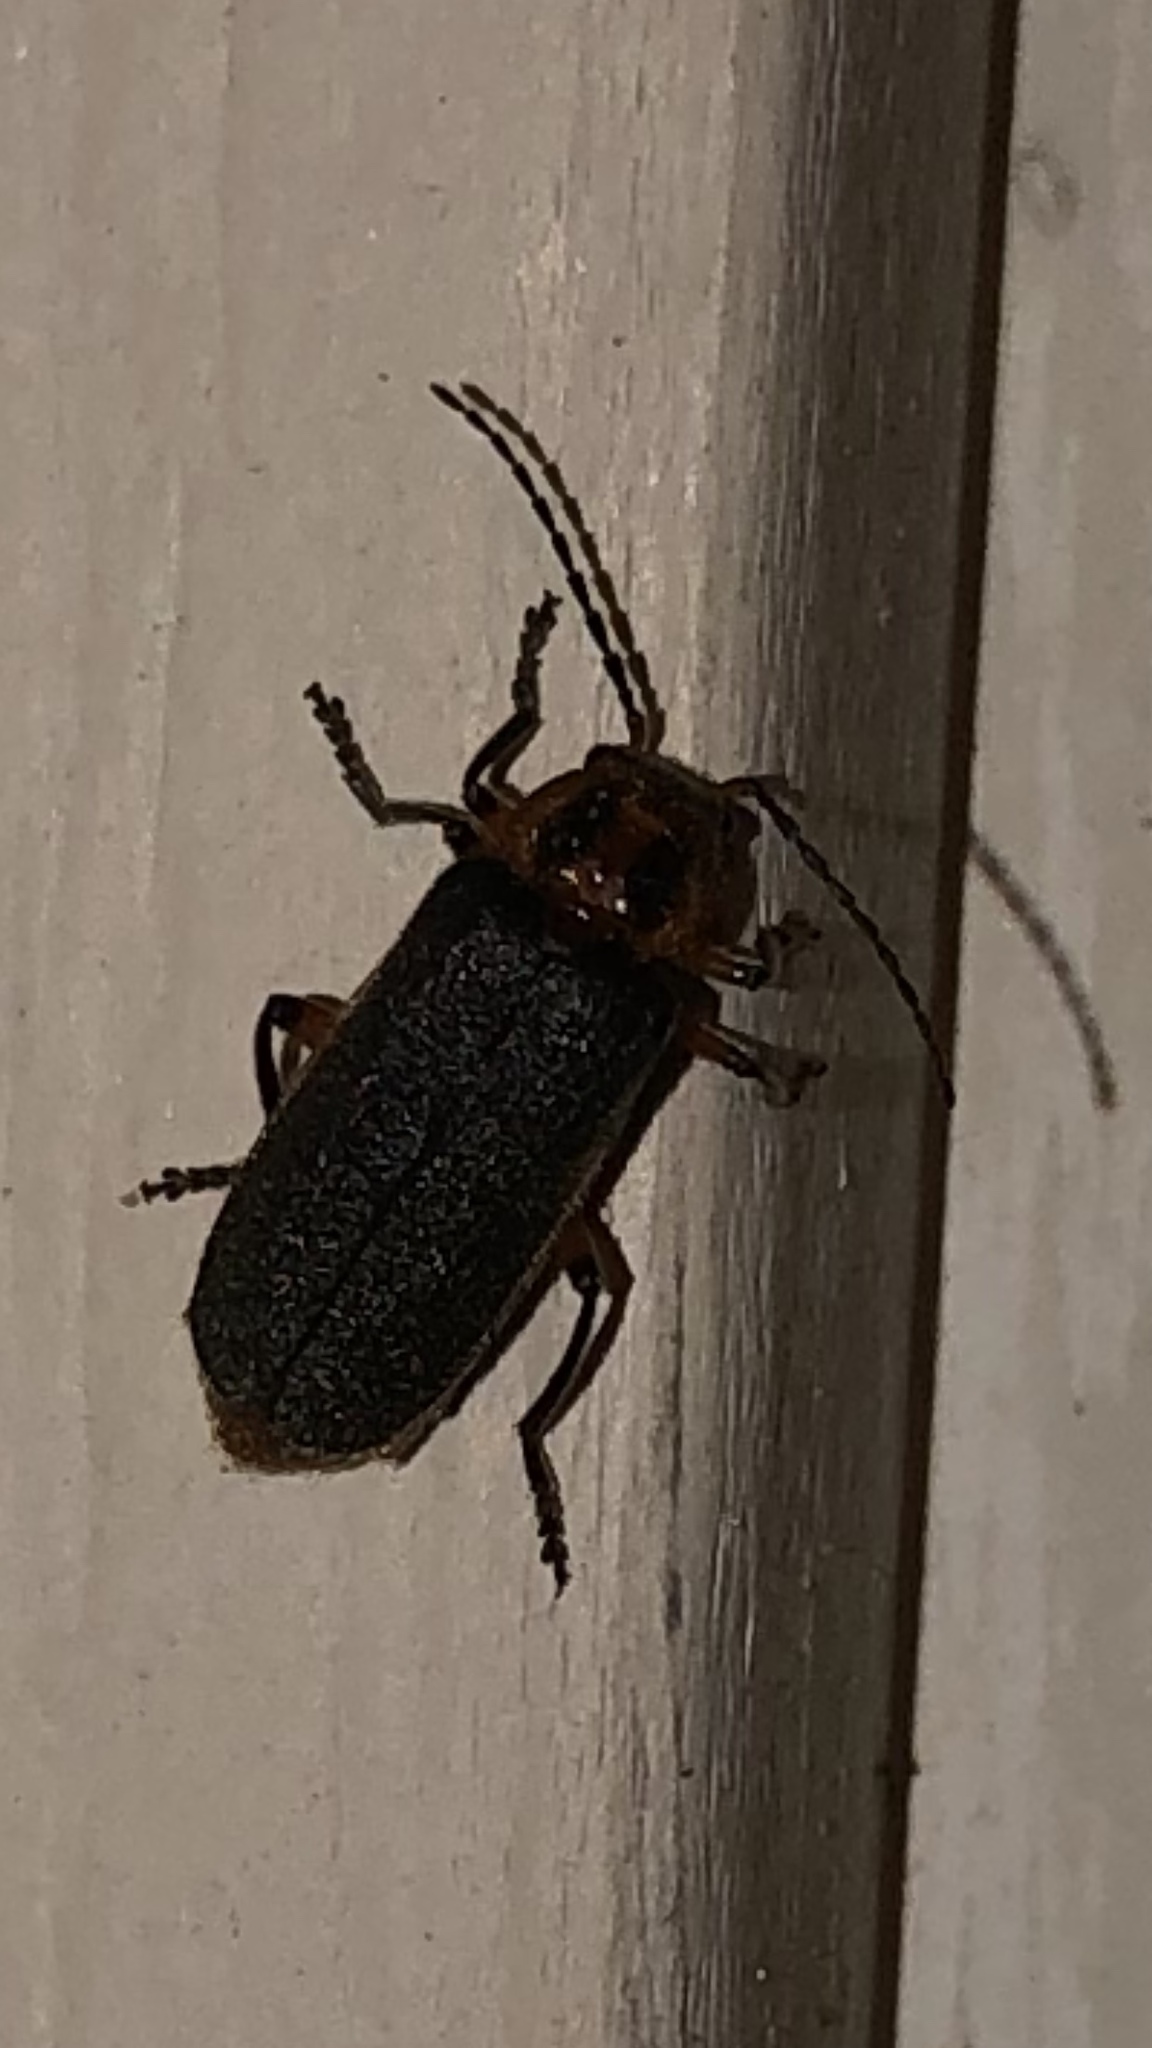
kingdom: Animalia
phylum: Arthropoda
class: Insecta
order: Coleoptera
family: Cantharidae
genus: Atalantycha
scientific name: Atalantycha bilineata
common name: Two-lined leatherwing
